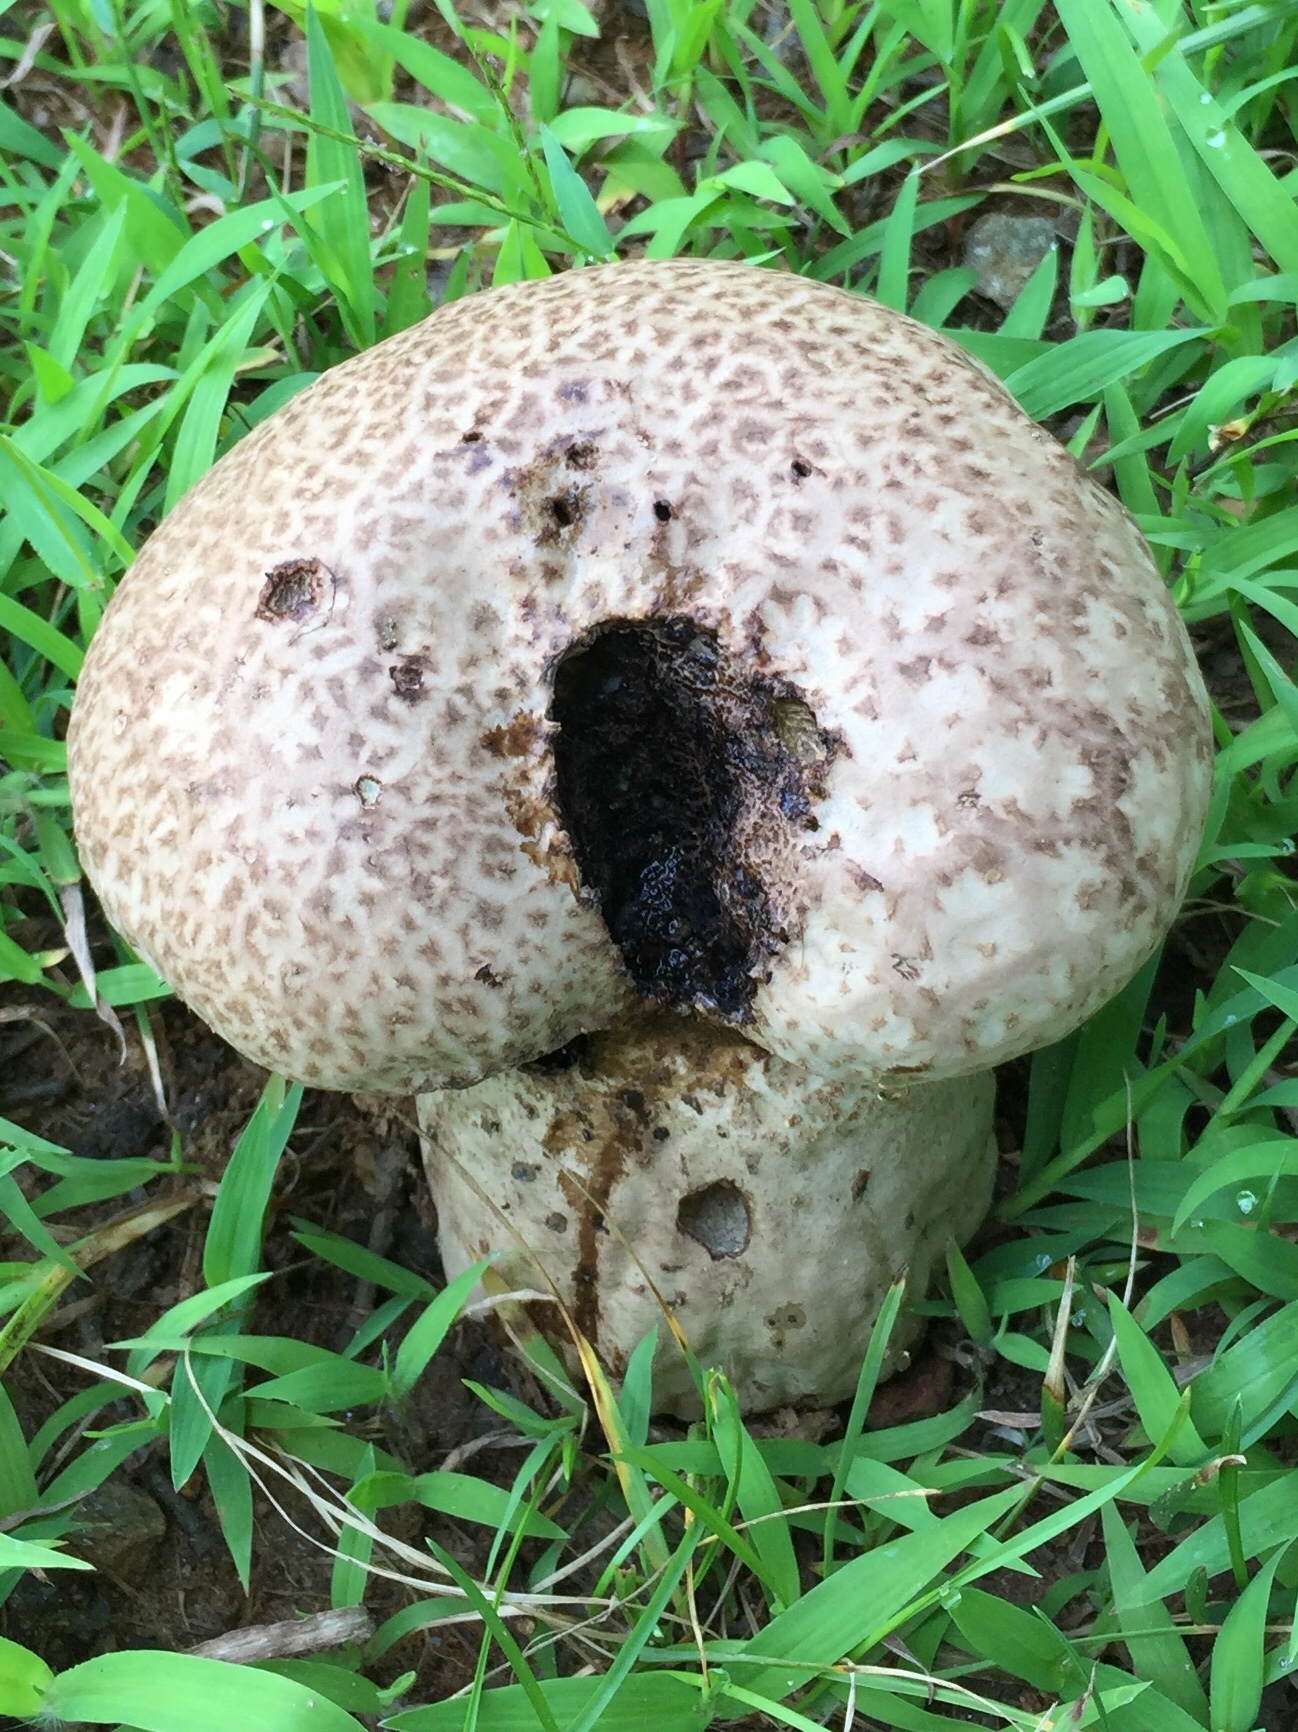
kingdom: Fungi
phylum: Basidiomycota
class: Agaricomycetes
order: Agaricales
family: Lycoperdaceae
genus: Calvatia
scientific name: Calvatia cyathiformis
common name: Purple-spored puffball
